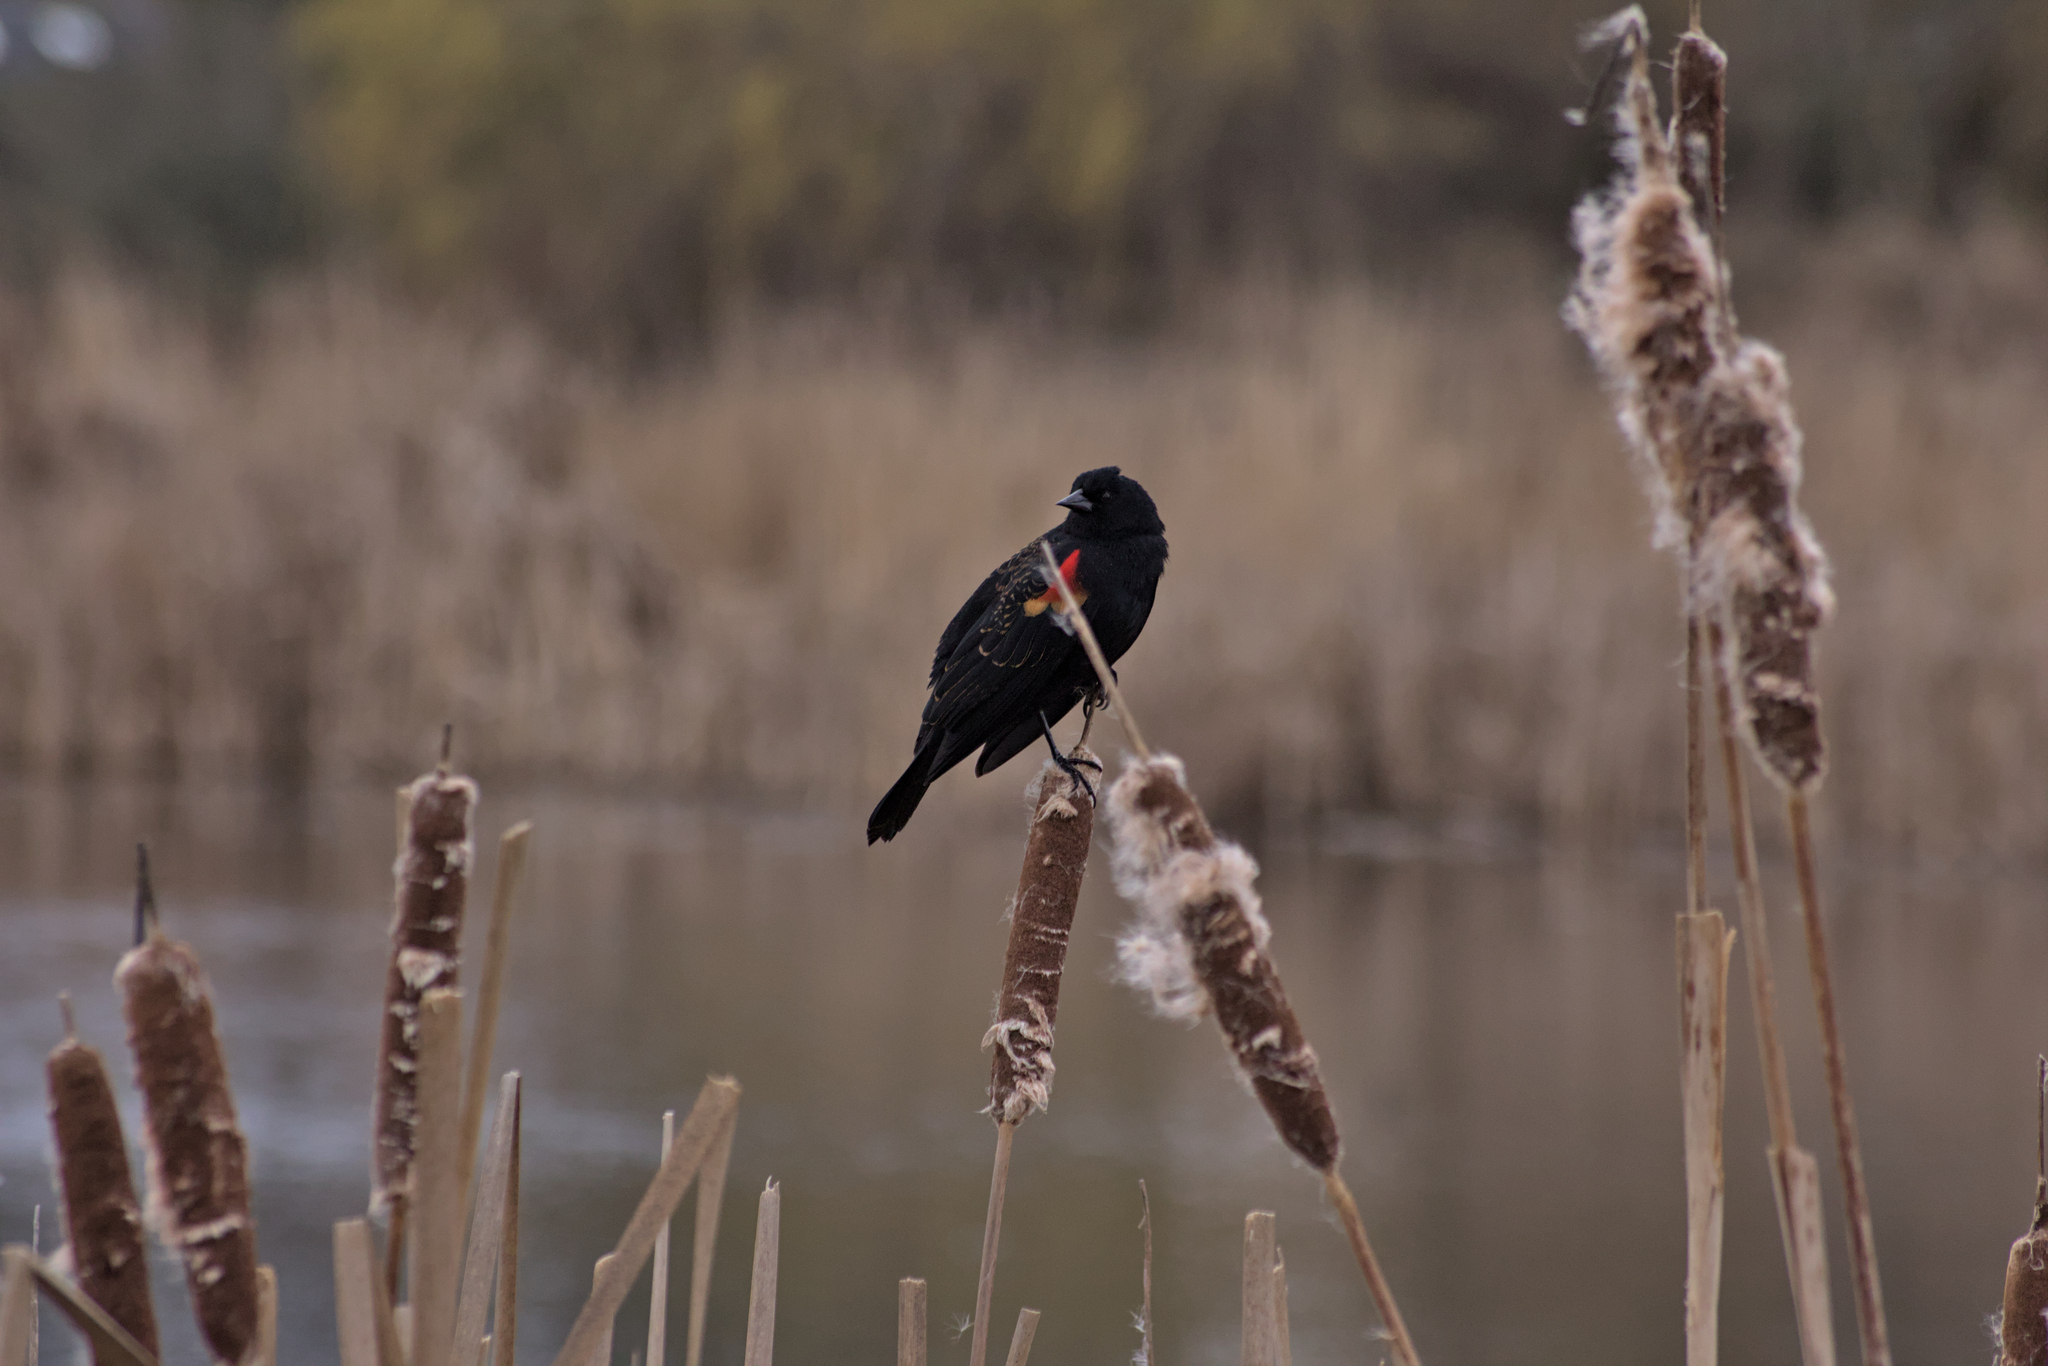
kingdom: Animalia
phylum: Chordata
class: Aves
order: Passeriformes
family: Icteridae
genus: Agelaius
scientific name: Agelaius phoeniceus
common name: Red-winged blackbird
